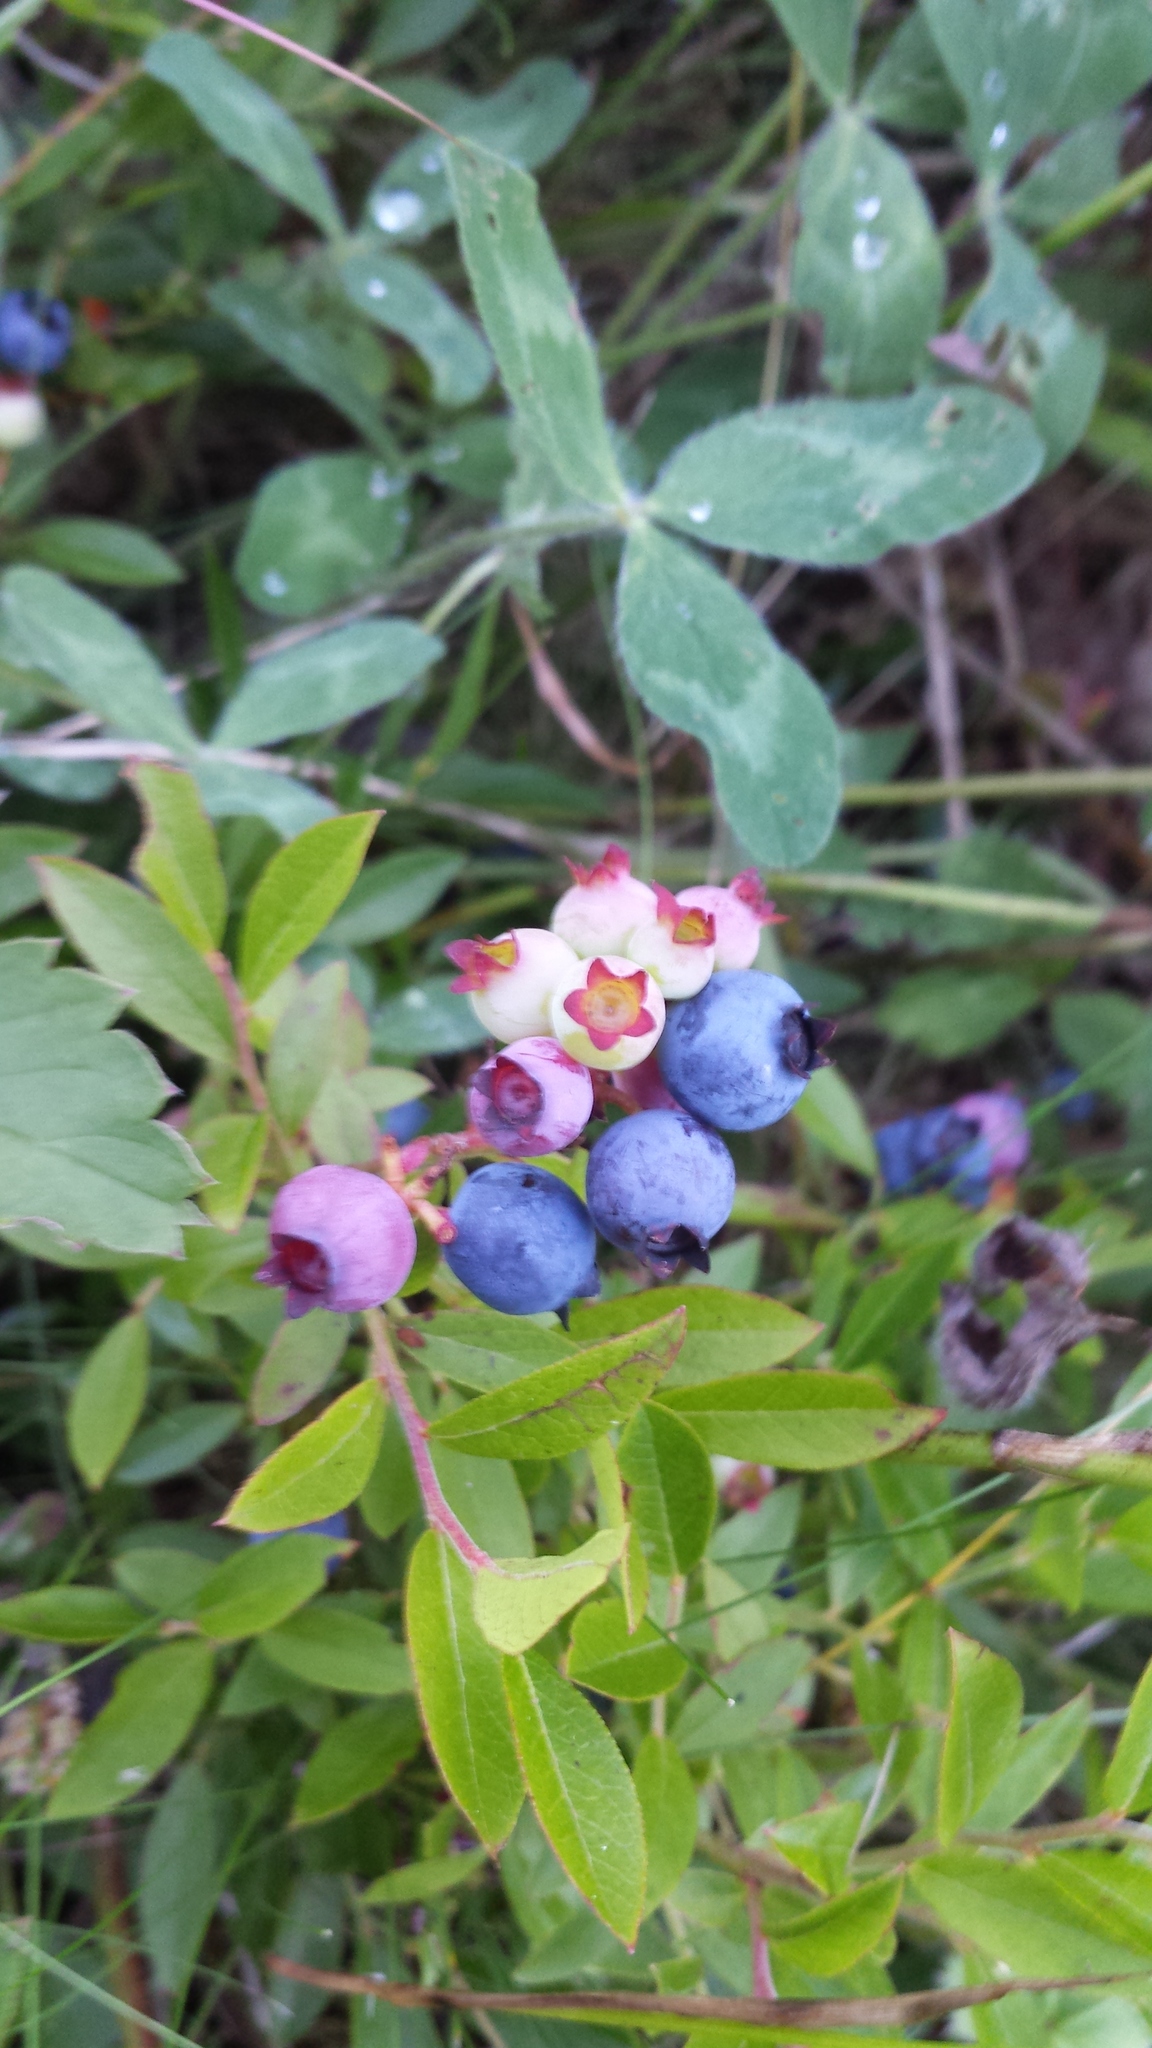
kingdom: Plantae
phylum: Tracheophyta
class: Magnoliopsida
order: Ericales
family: Ericaceae
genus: Vaccinium
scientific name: Vaccinium angustifolium
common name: Early lowbush blueberry
